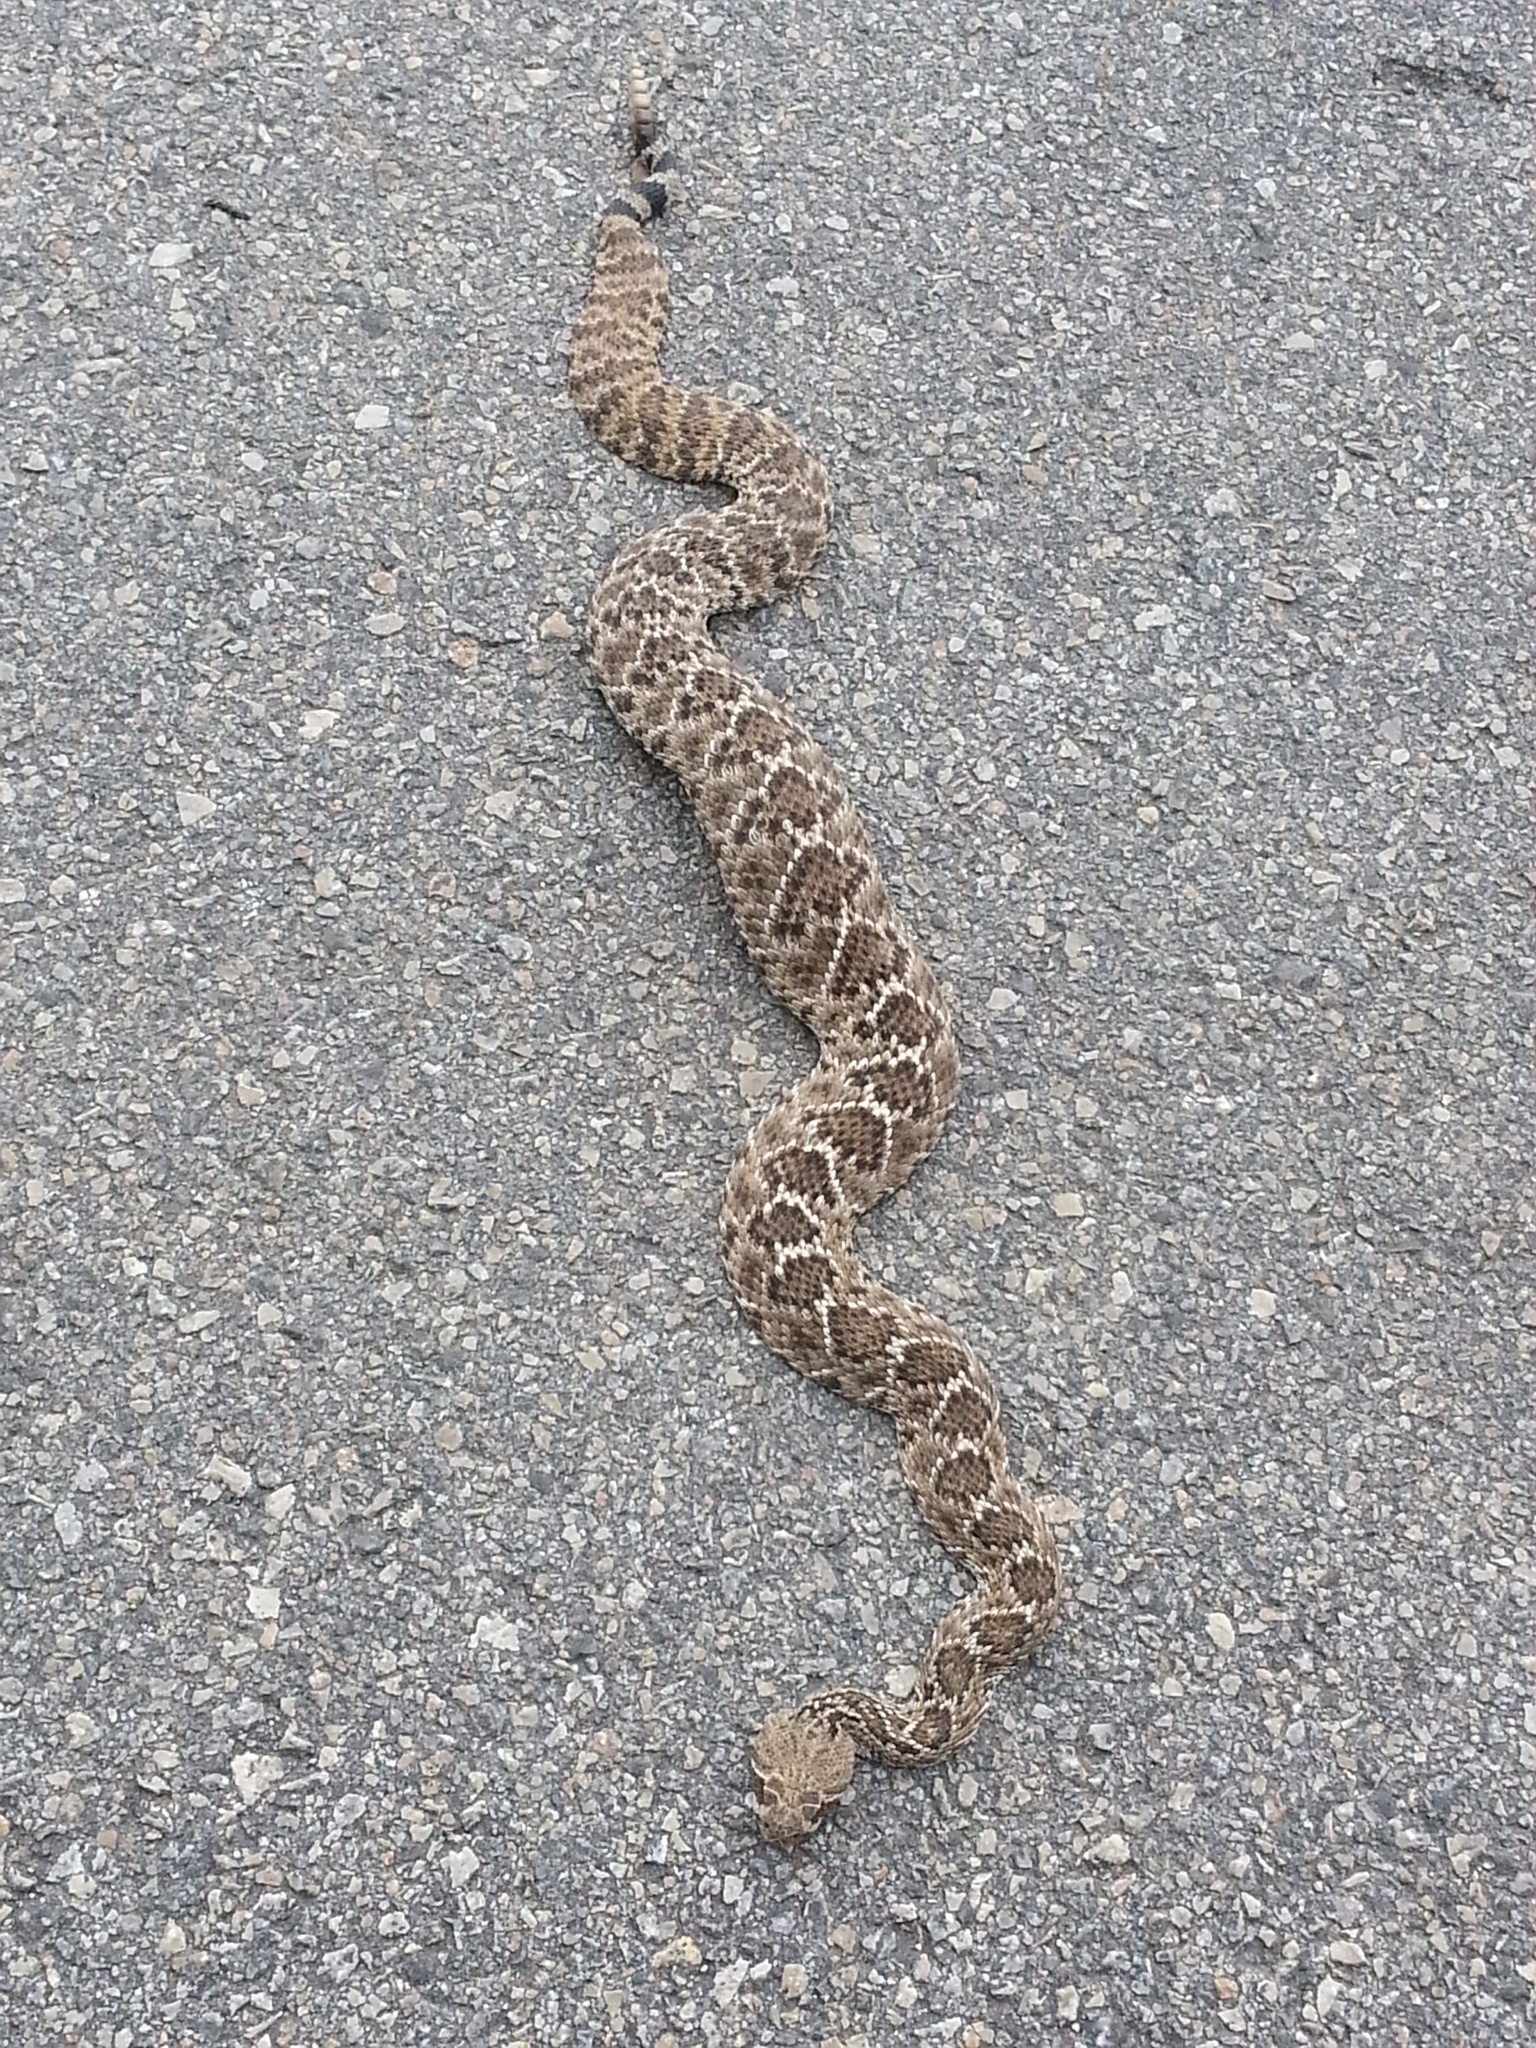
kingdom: Animalia
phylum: Chordata
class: Squamata
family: Viperidae
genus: Crotalus
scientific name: Crotalus atrox
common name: Western diamond-backed rattlesnake
